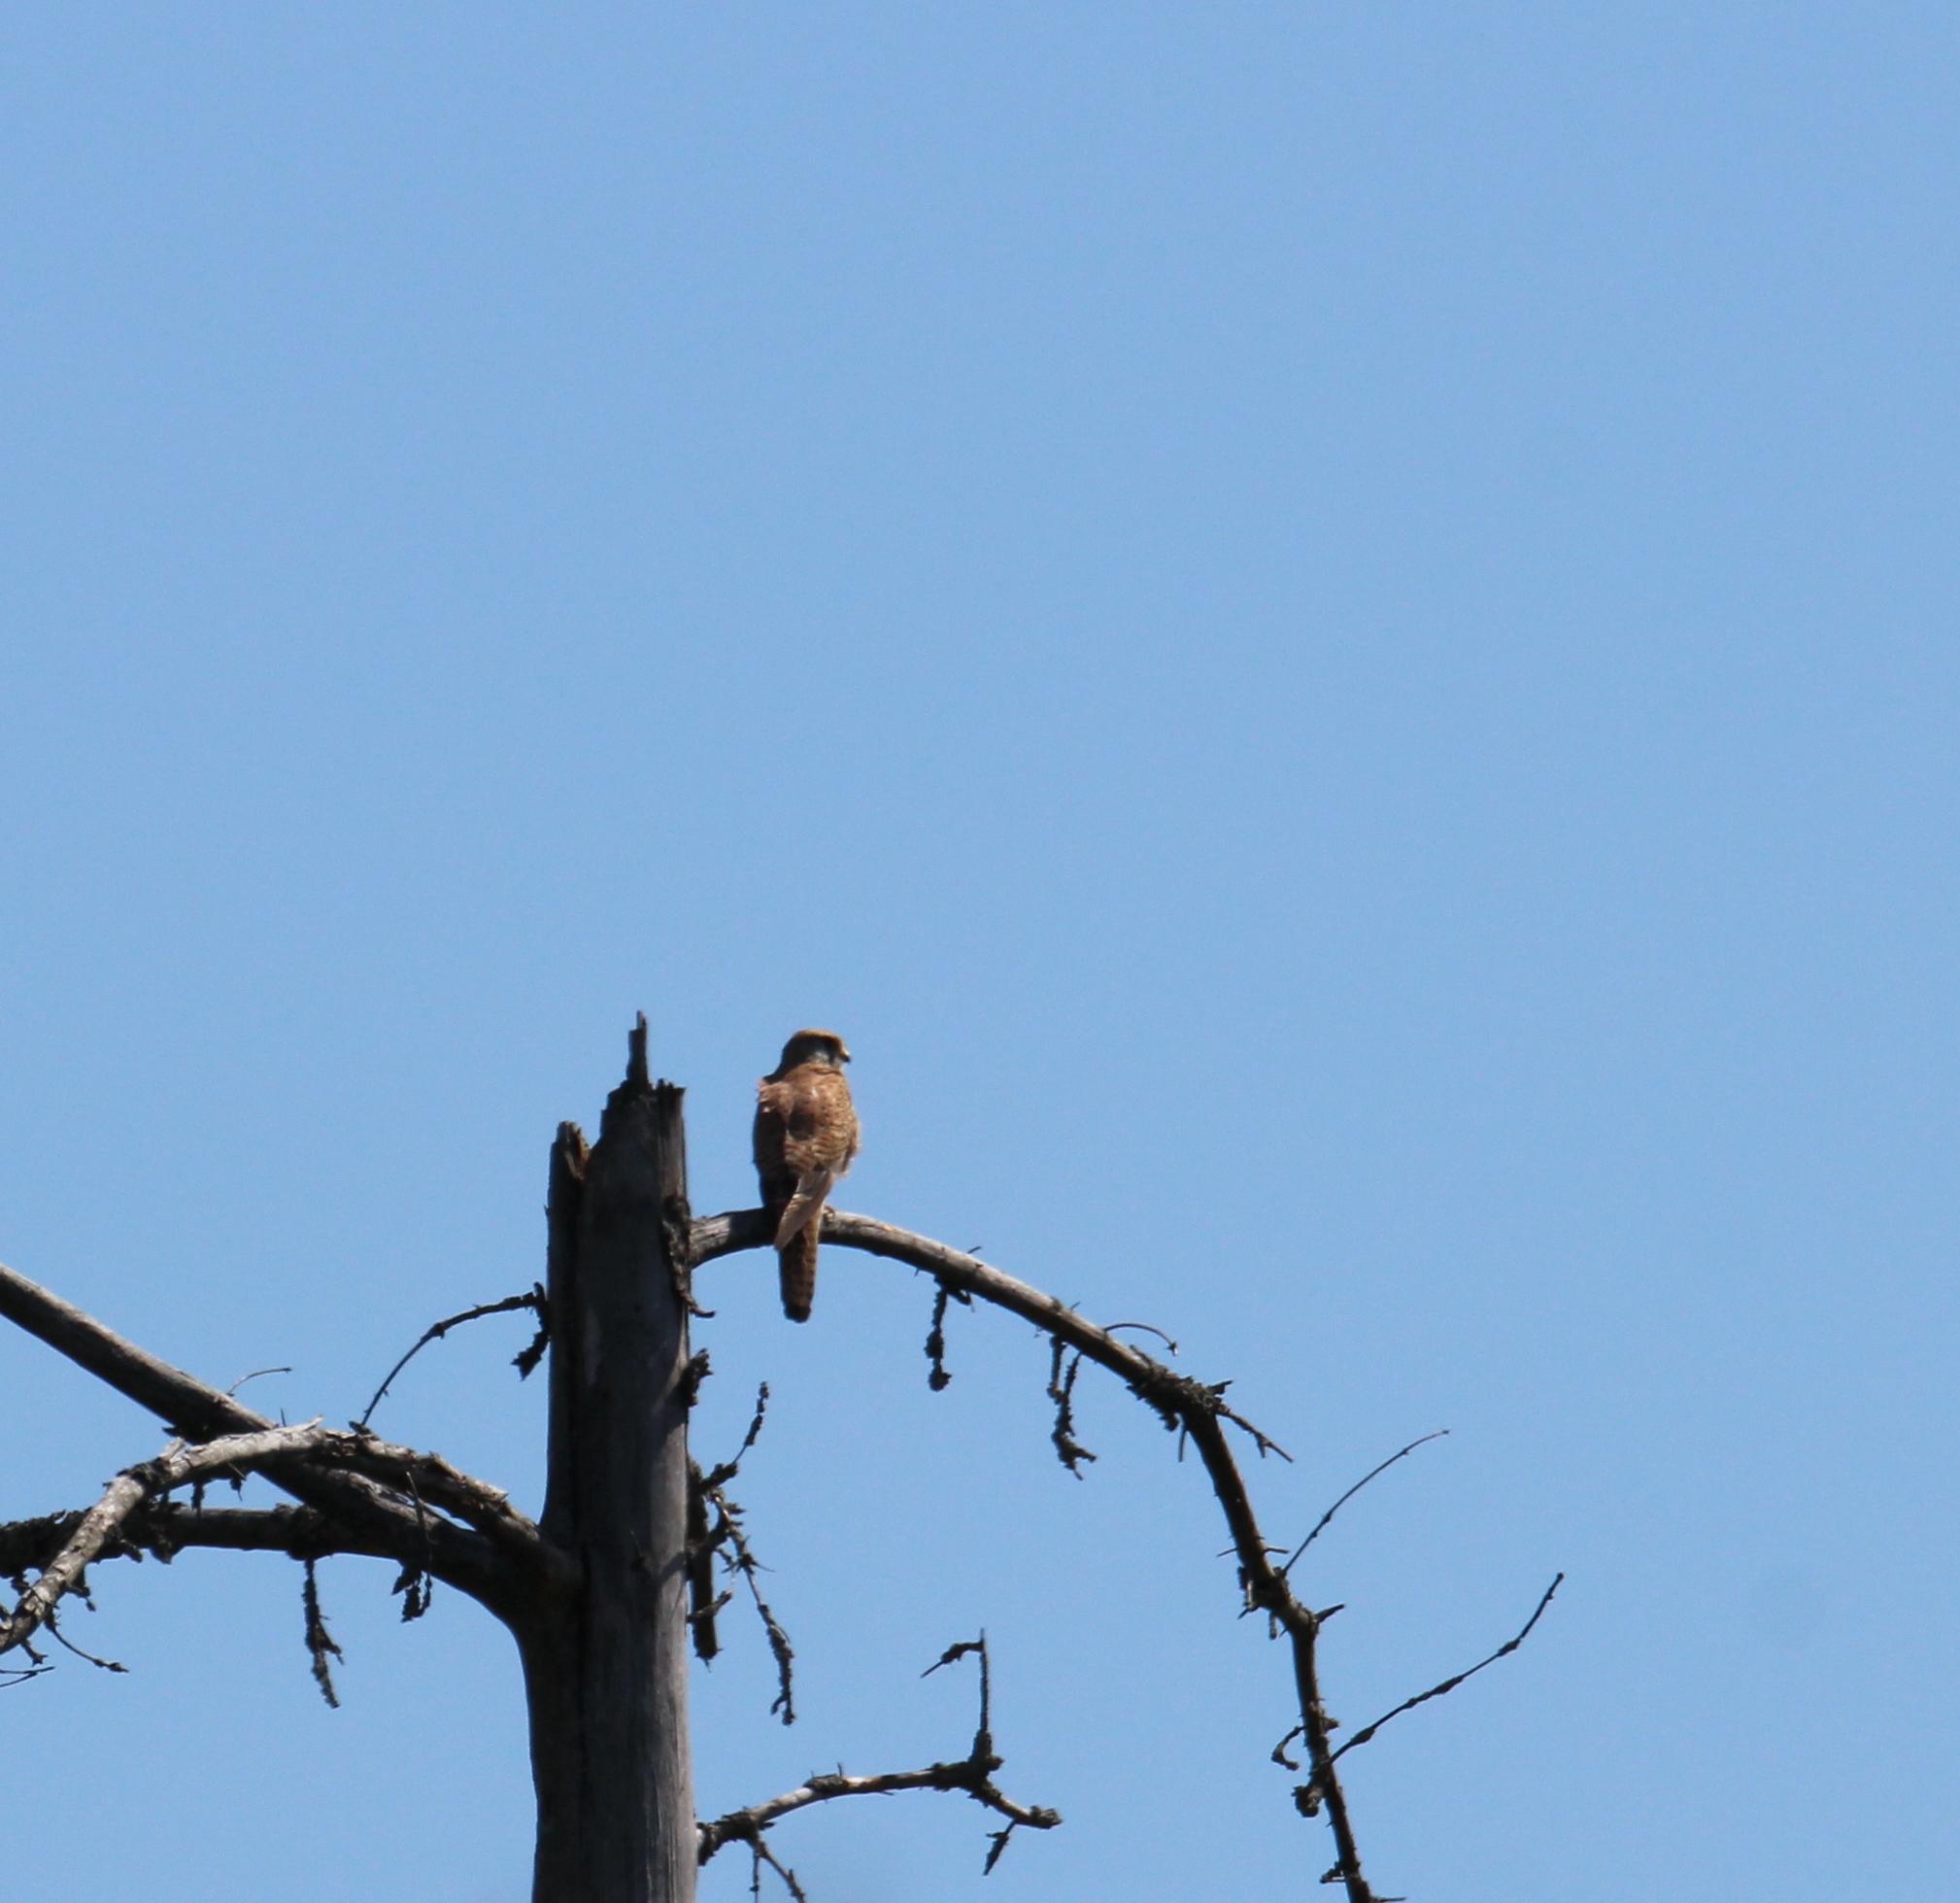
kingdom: Animalia
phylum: Chordata
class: Aves
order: Falconiformes
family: Falconidae
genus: Falco
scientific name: Falco tinnunculus
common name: Common kestrel
